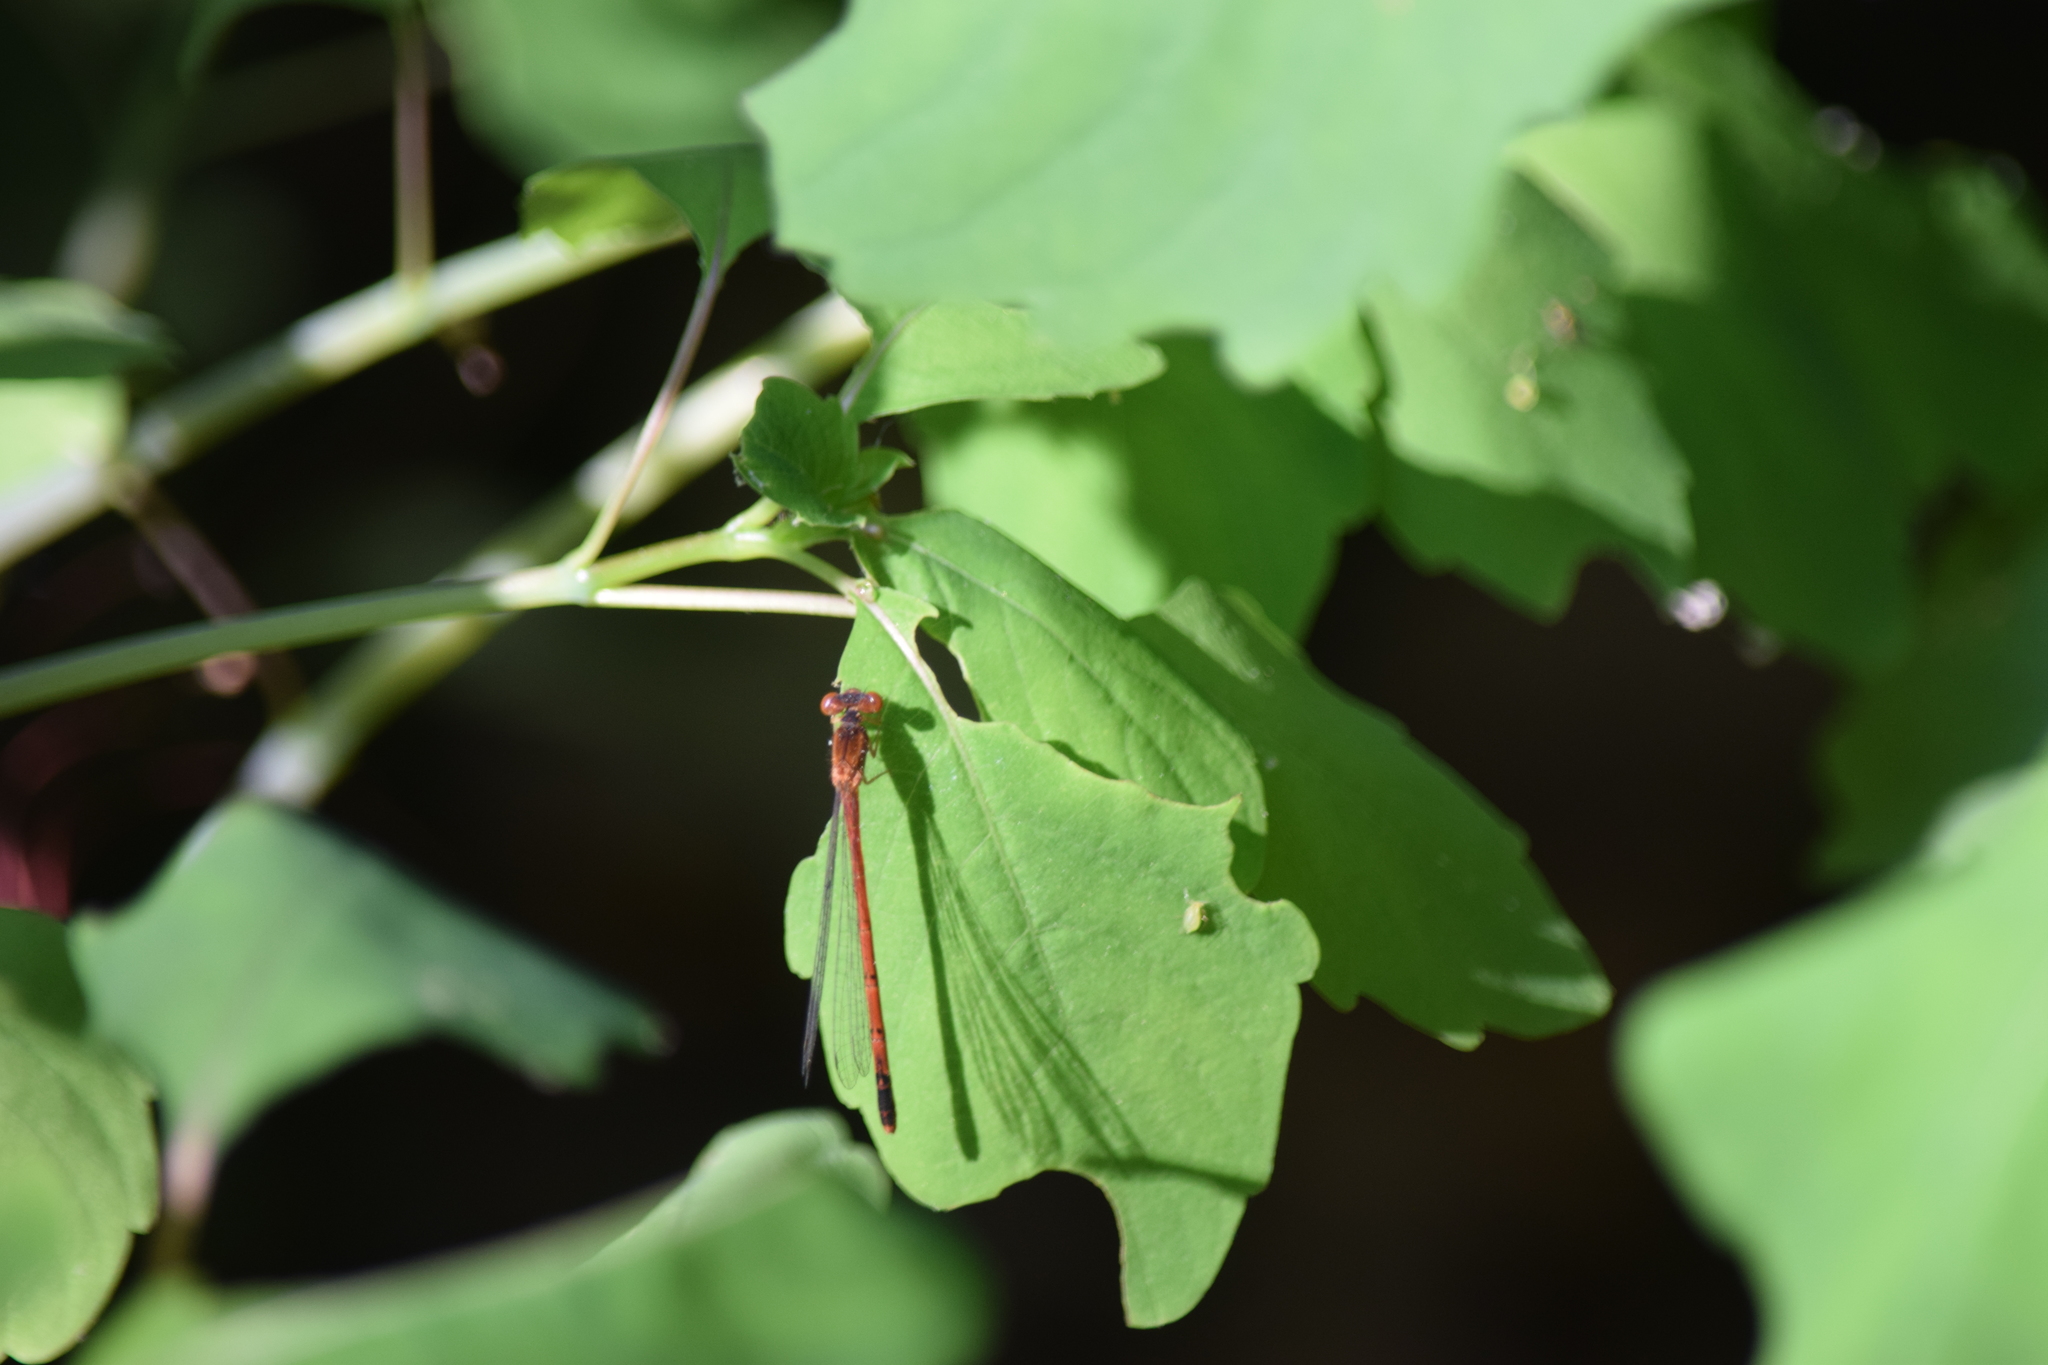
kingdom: Animalia
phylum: Arthropoda
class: Insecta
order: Odonata
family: Coenagrionidae
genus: Amphiagrion
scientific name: Amphiagrion saucium
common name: Eastern red damsel
